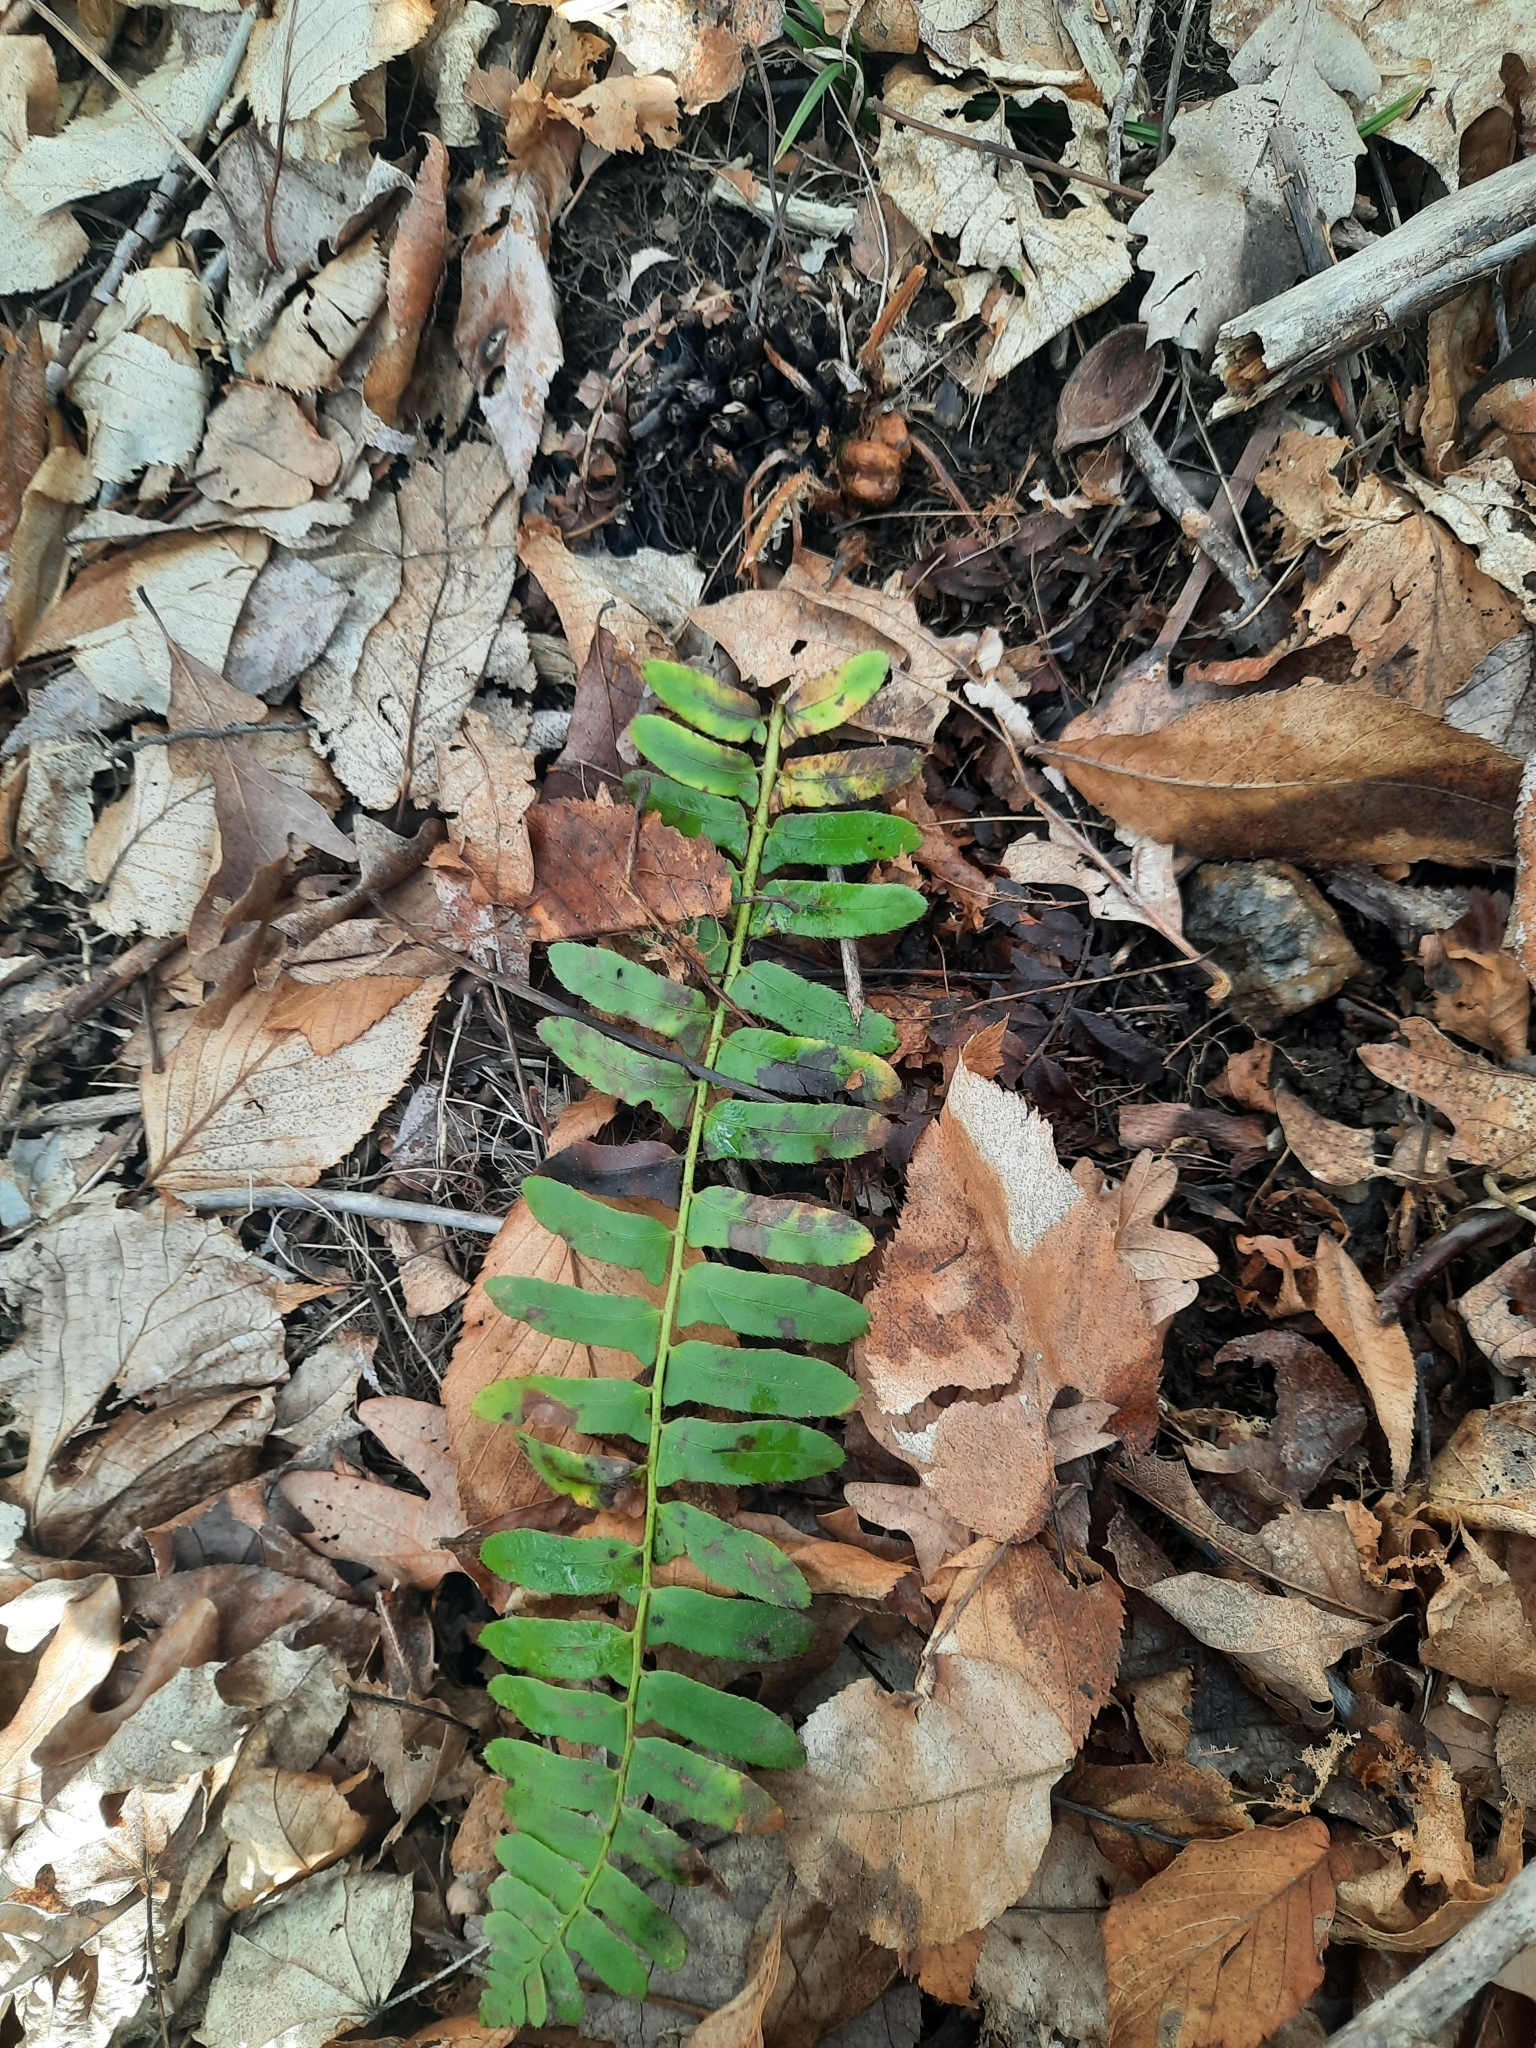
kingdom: Plantae
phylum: Tracheophyta
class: Polypodiopsida
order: Polypodiales
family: Dryopteridaceae
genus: Polystichum
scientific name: Polystichum acrostichoides
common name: Christmas fern
